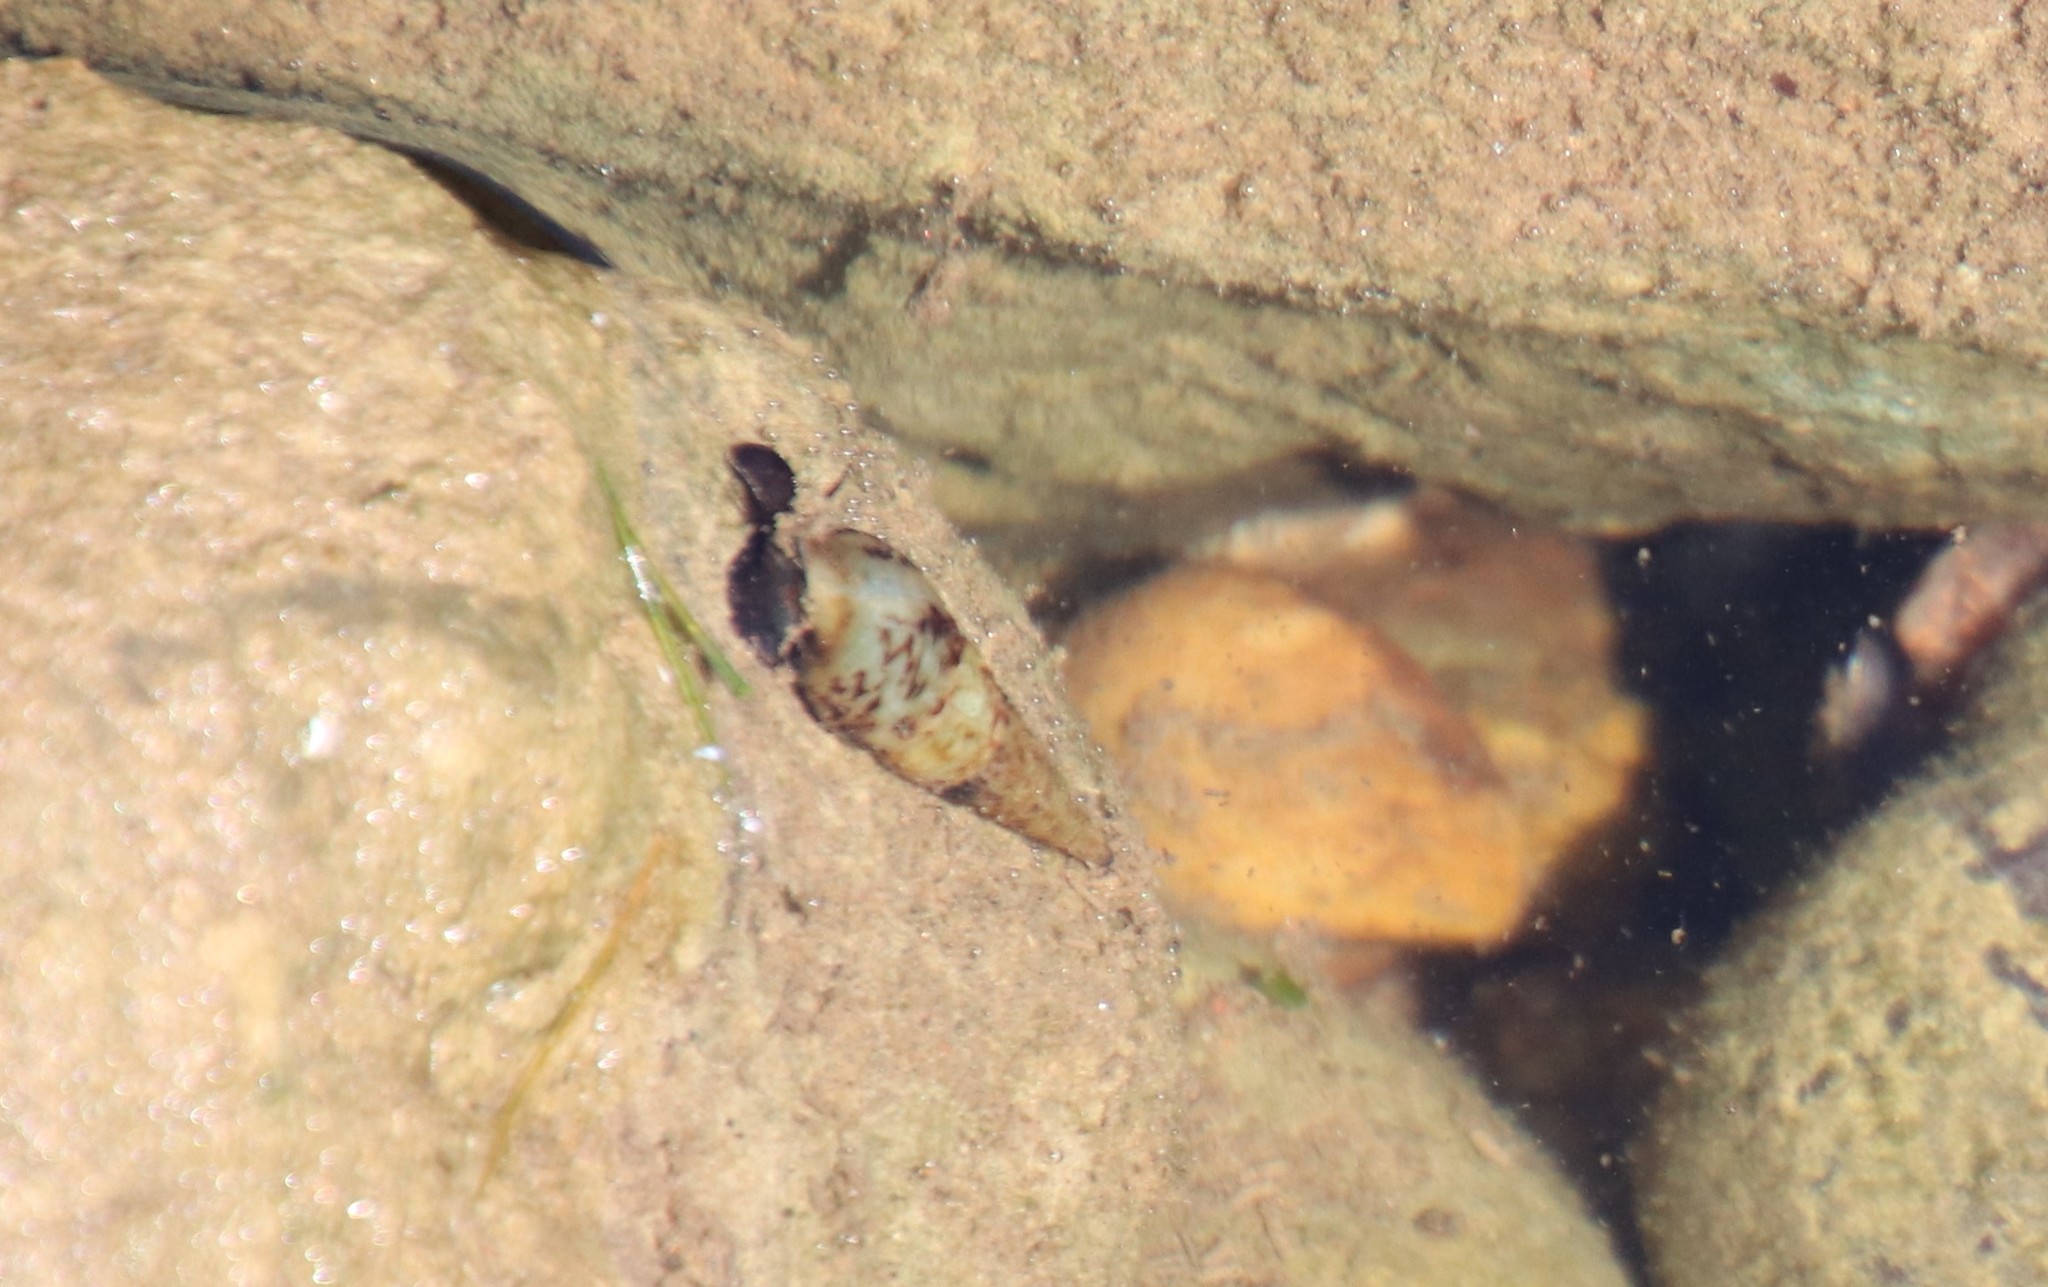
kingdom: Animalia
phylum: Mollusca
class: Gastropoda
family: Thiaridae
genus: Melanoides
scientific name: Melanoides tuberculata
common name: Red-rim melania
